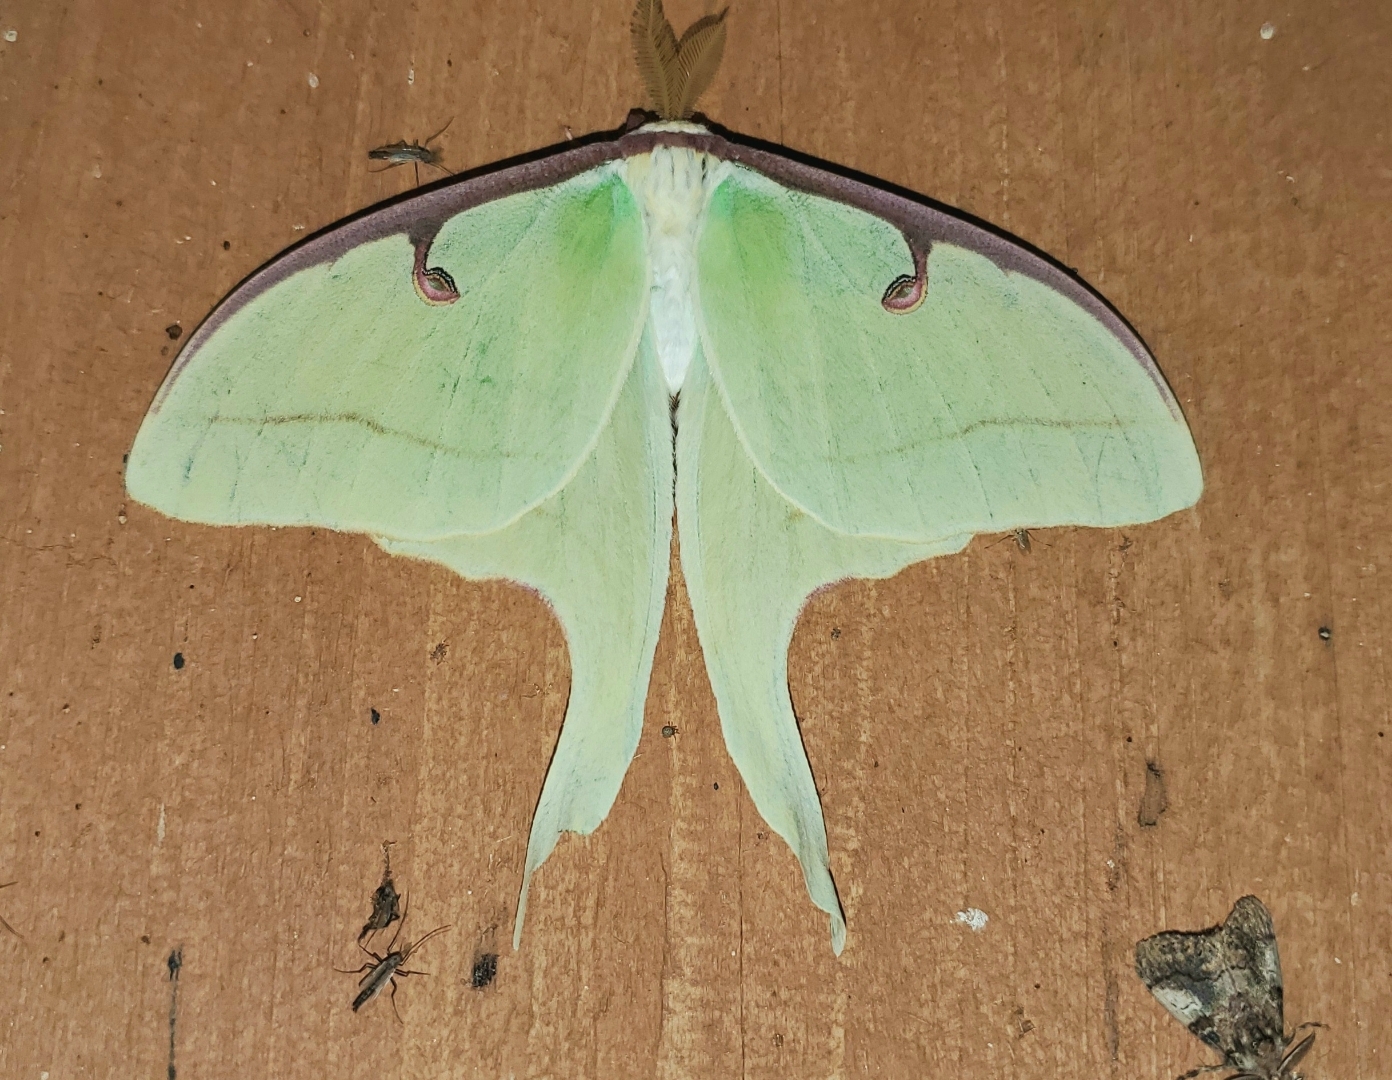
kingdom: Animalia
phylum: Arthropoda
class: Insecta
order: Lepidoptera
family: Saturniidae
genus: Actias
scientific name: Actias luna
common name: Luna moth
